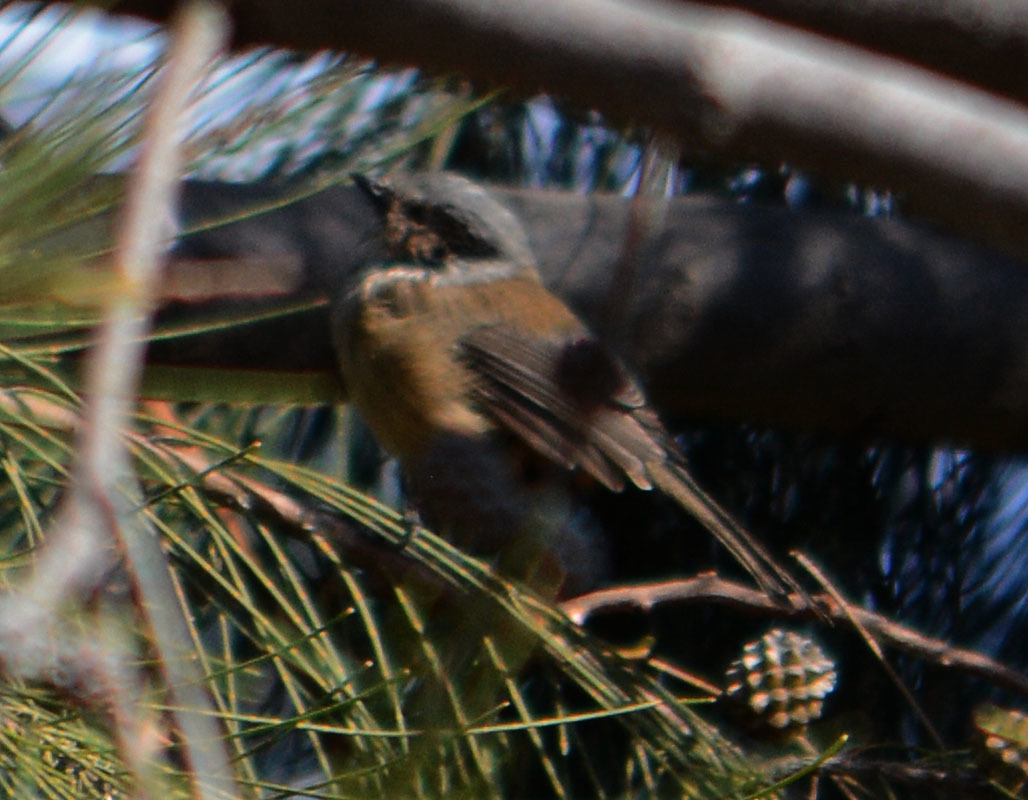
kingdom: Animalia
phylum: Chordata
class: Aves
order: Passeriformes
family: Aegithalidae
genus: Psaltriparus
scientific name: Psaltriparus minimus
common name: American bushtit
